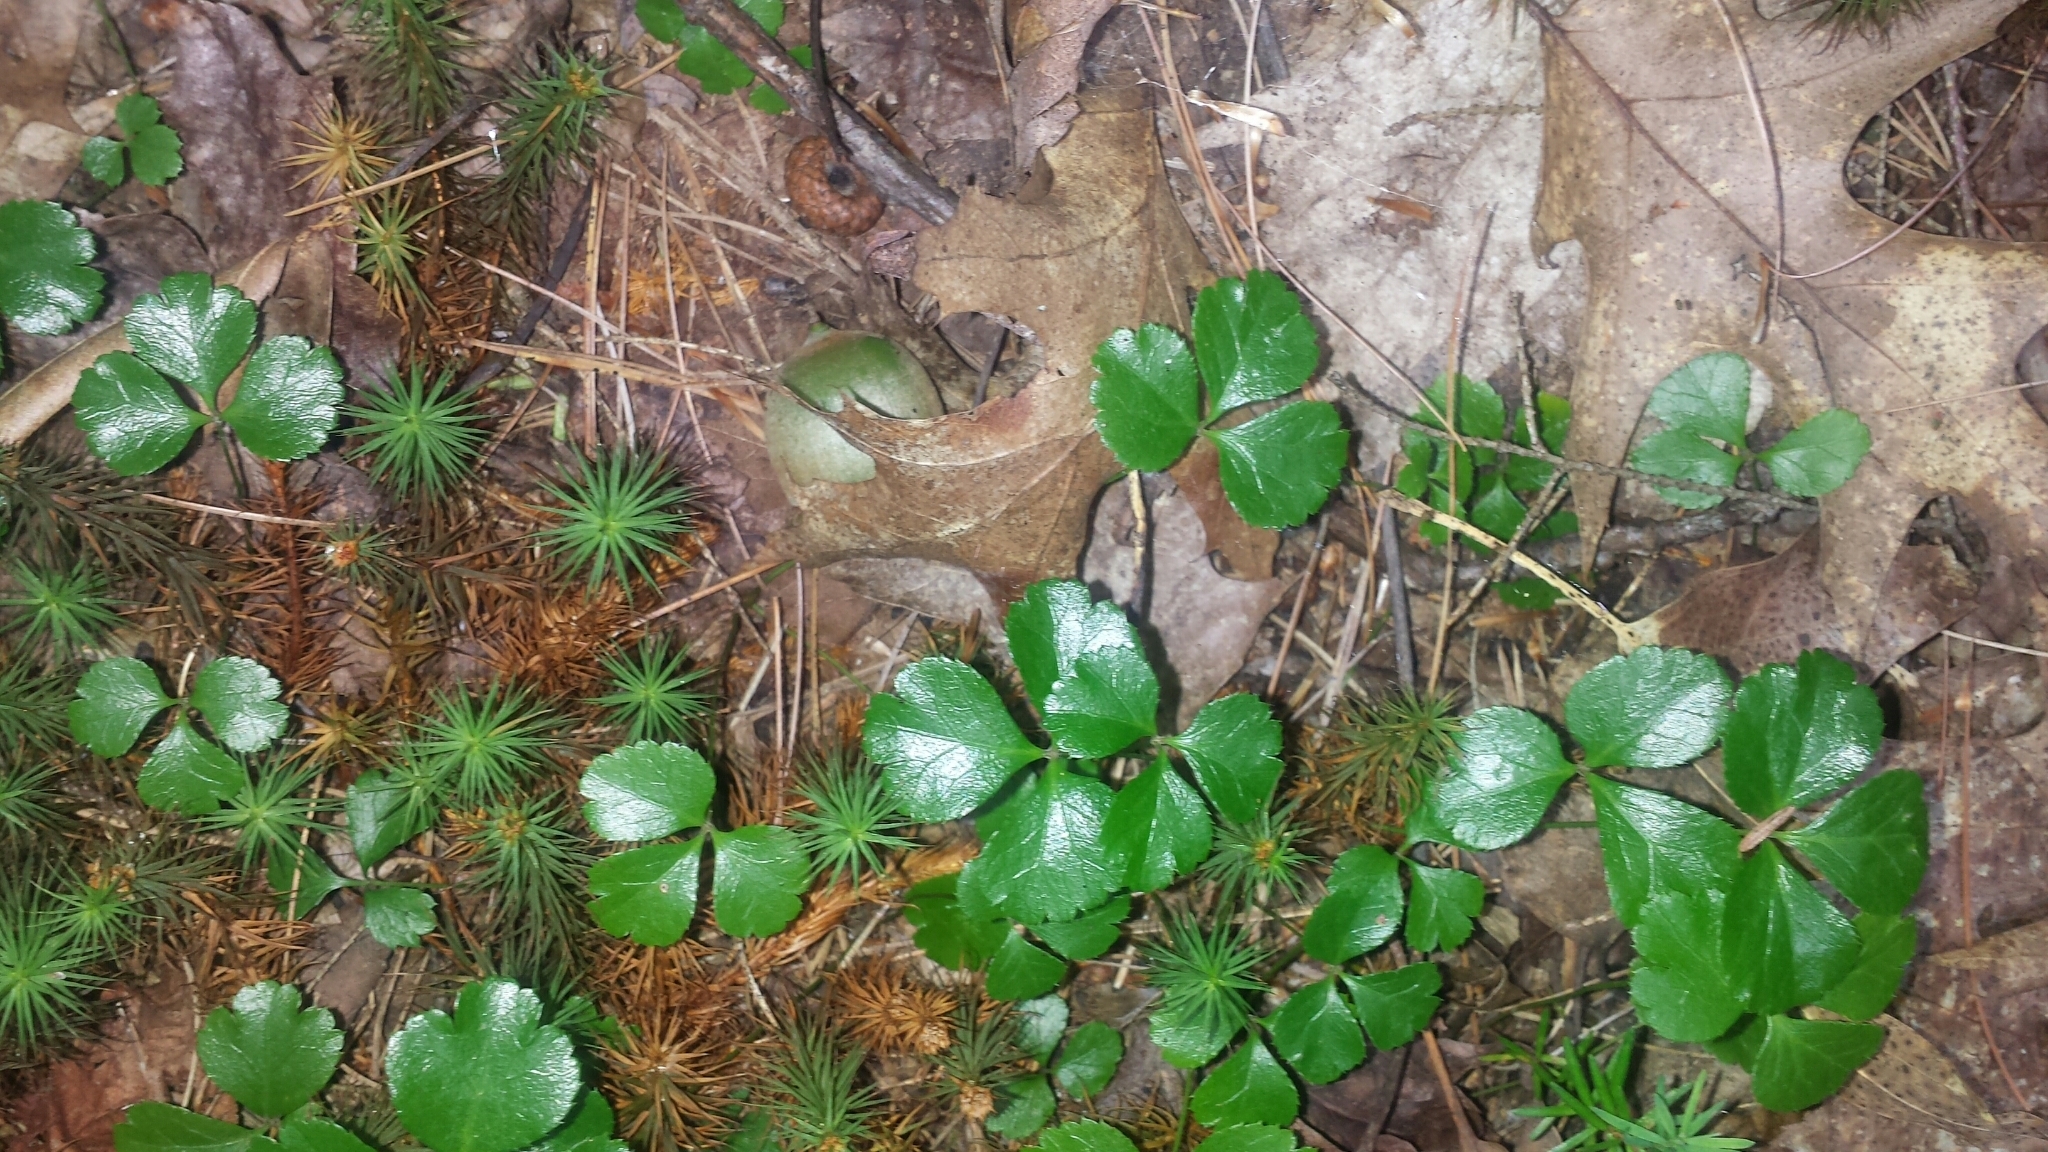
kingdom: Plantae
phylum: Tracheophyta
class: Magnoliopsida
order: Ranunculales
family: Ranunculaceae
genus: Coptis
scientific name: Coptis trifolia
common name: Canker-root
